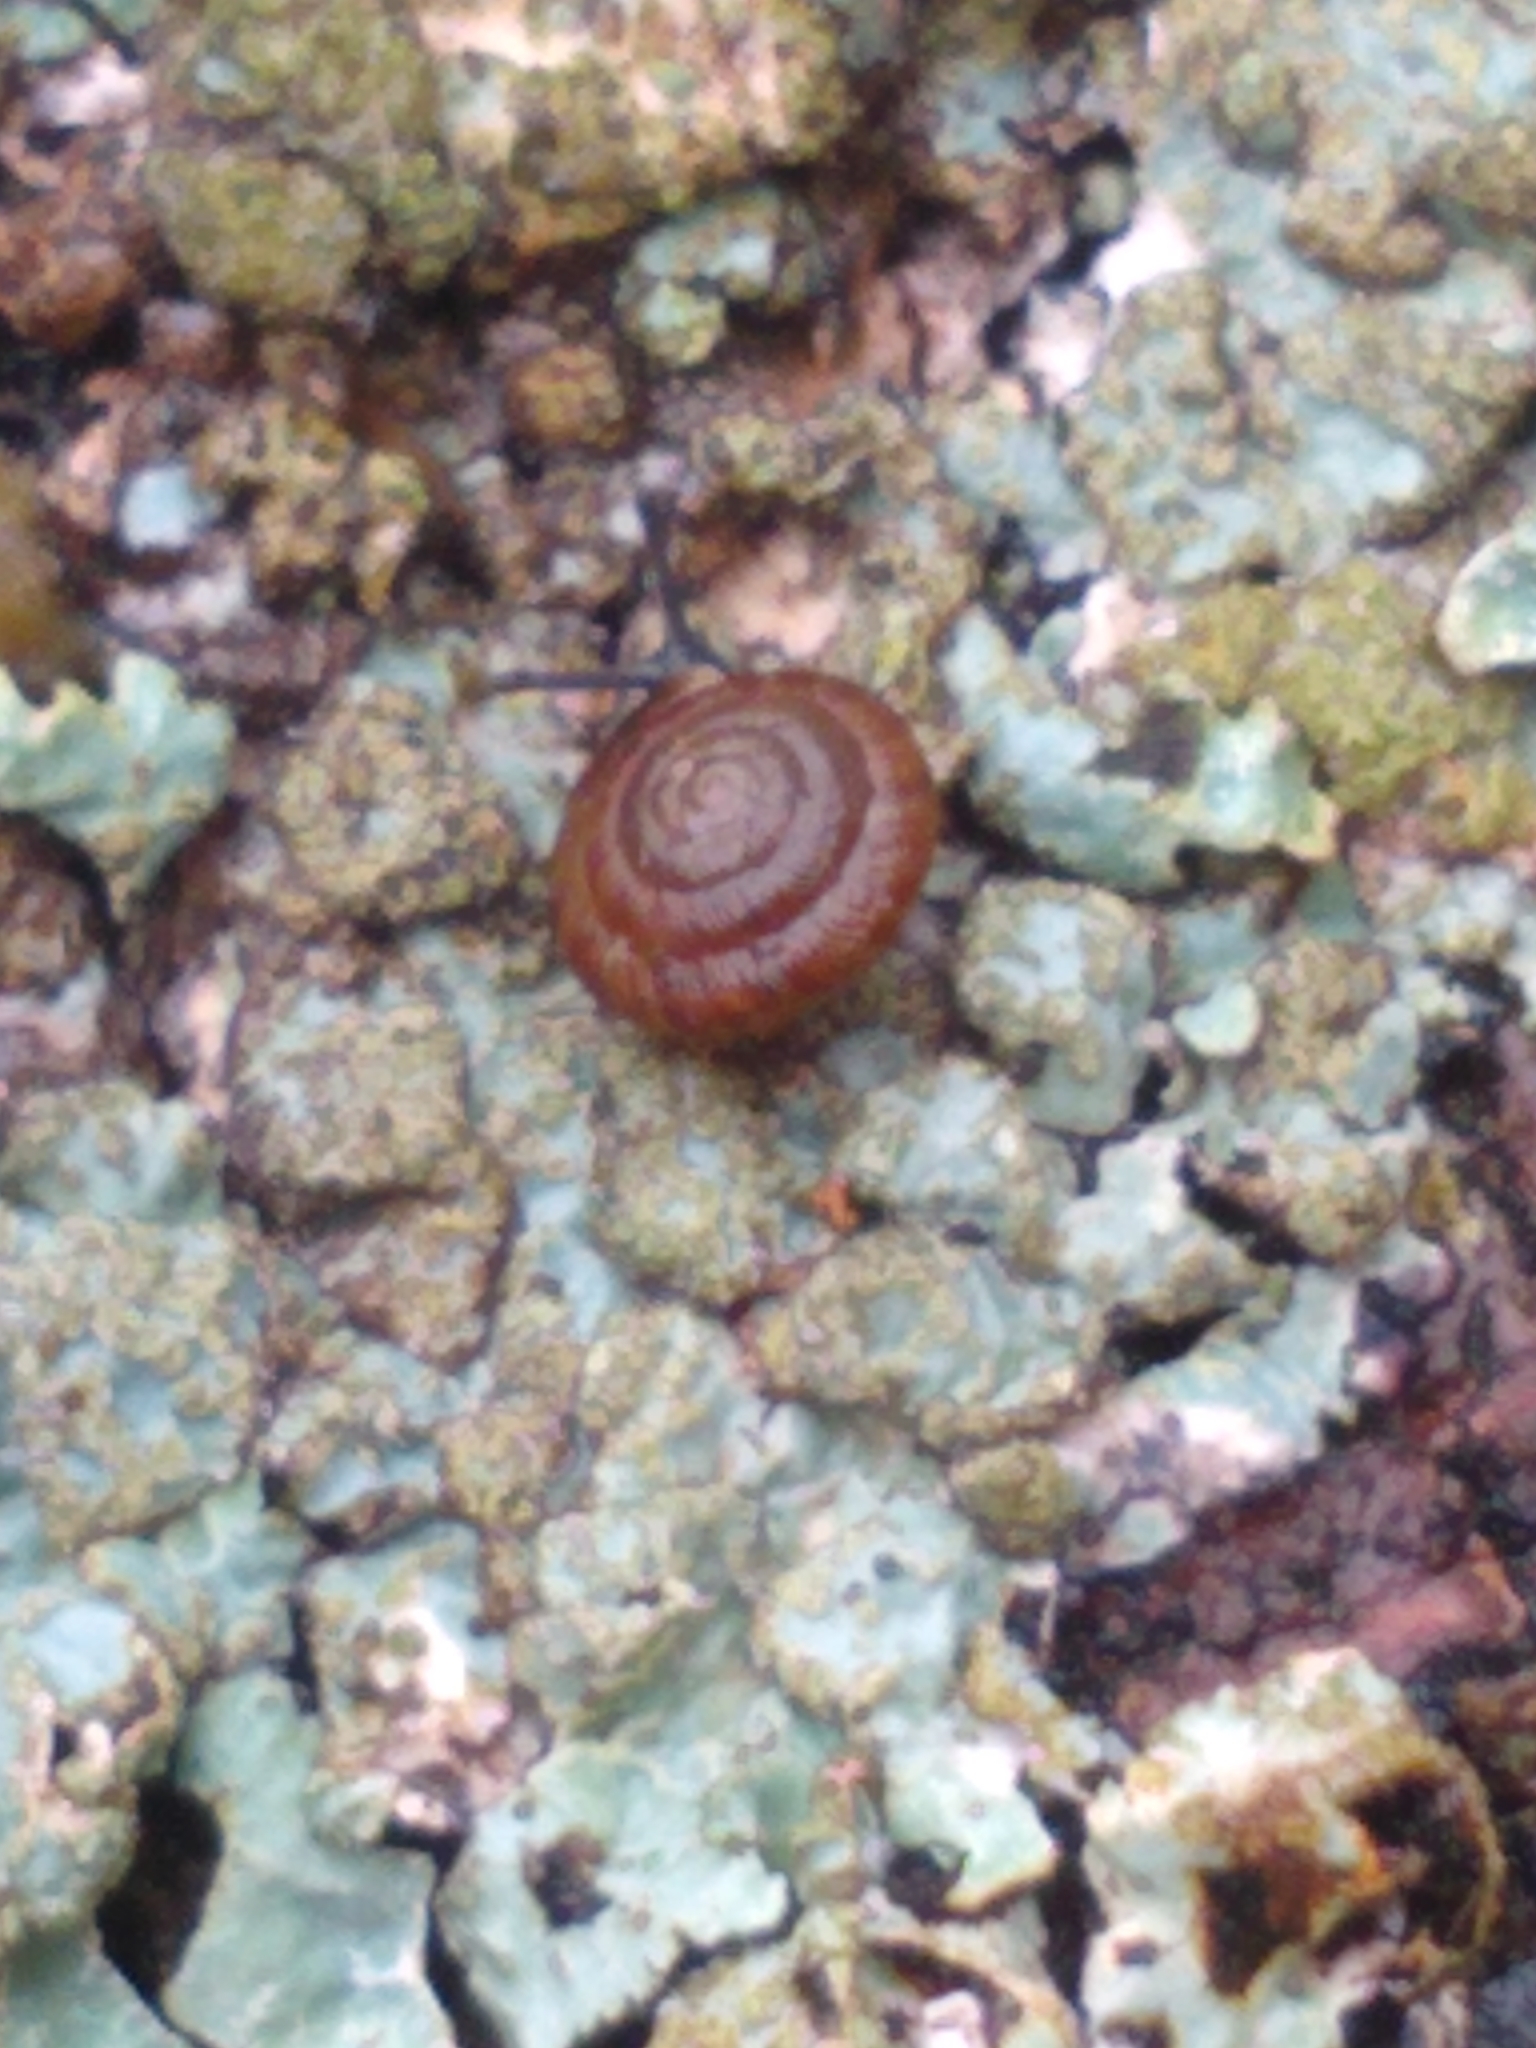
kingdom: Animalia
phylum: Mollusca
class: Gastropoda
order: Stylommatophora
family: Discidae
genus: Discus
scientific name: Discus rotundatus
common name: Rounded snail
